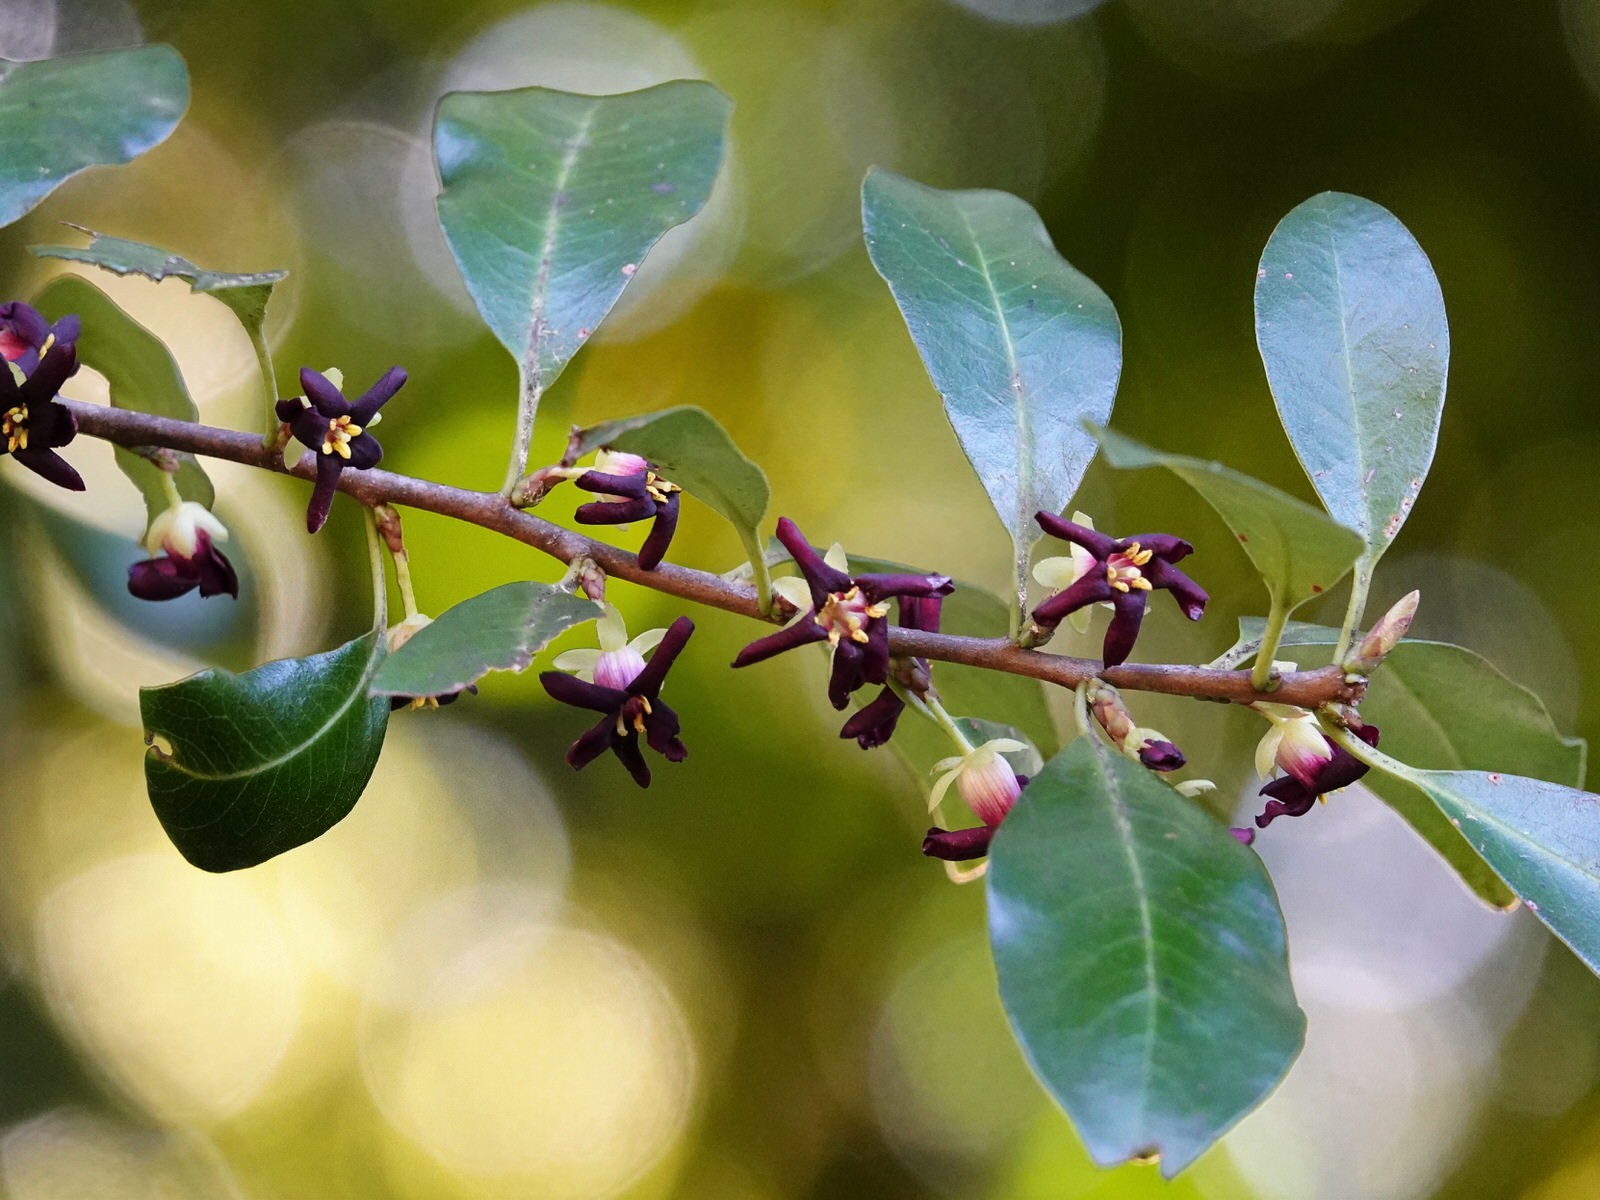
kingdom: Plantae
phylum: Tracheophyta
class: Magnoliopsida
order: Apiales
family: Pittosporaceae
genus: Pittosporum
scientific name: Pittosporum tenuifolium
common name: Kohuhu
